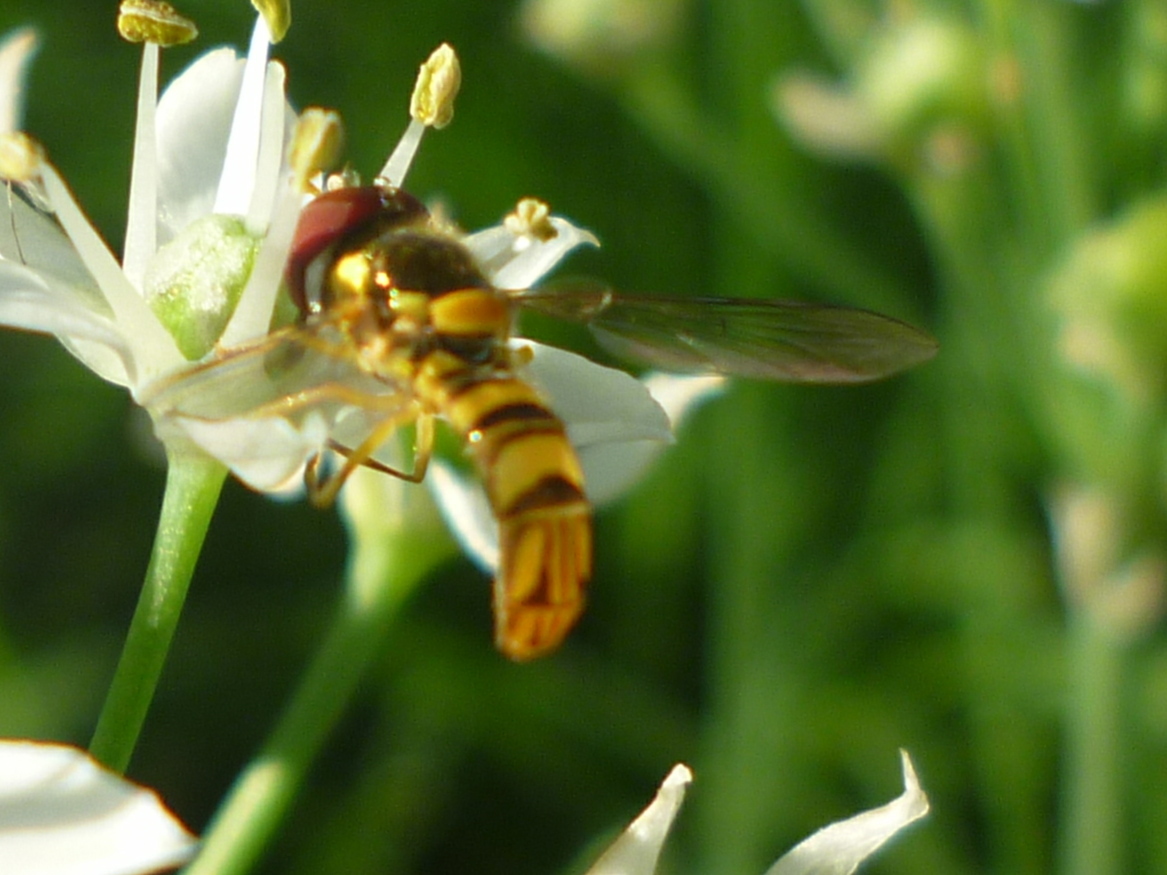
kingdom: Animalia
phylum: Arthropoda
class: Insecta
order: Diptera
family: Syrphidae
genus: Allograpta
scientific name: Allograpta obliqua
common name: Common oblique syrphid
